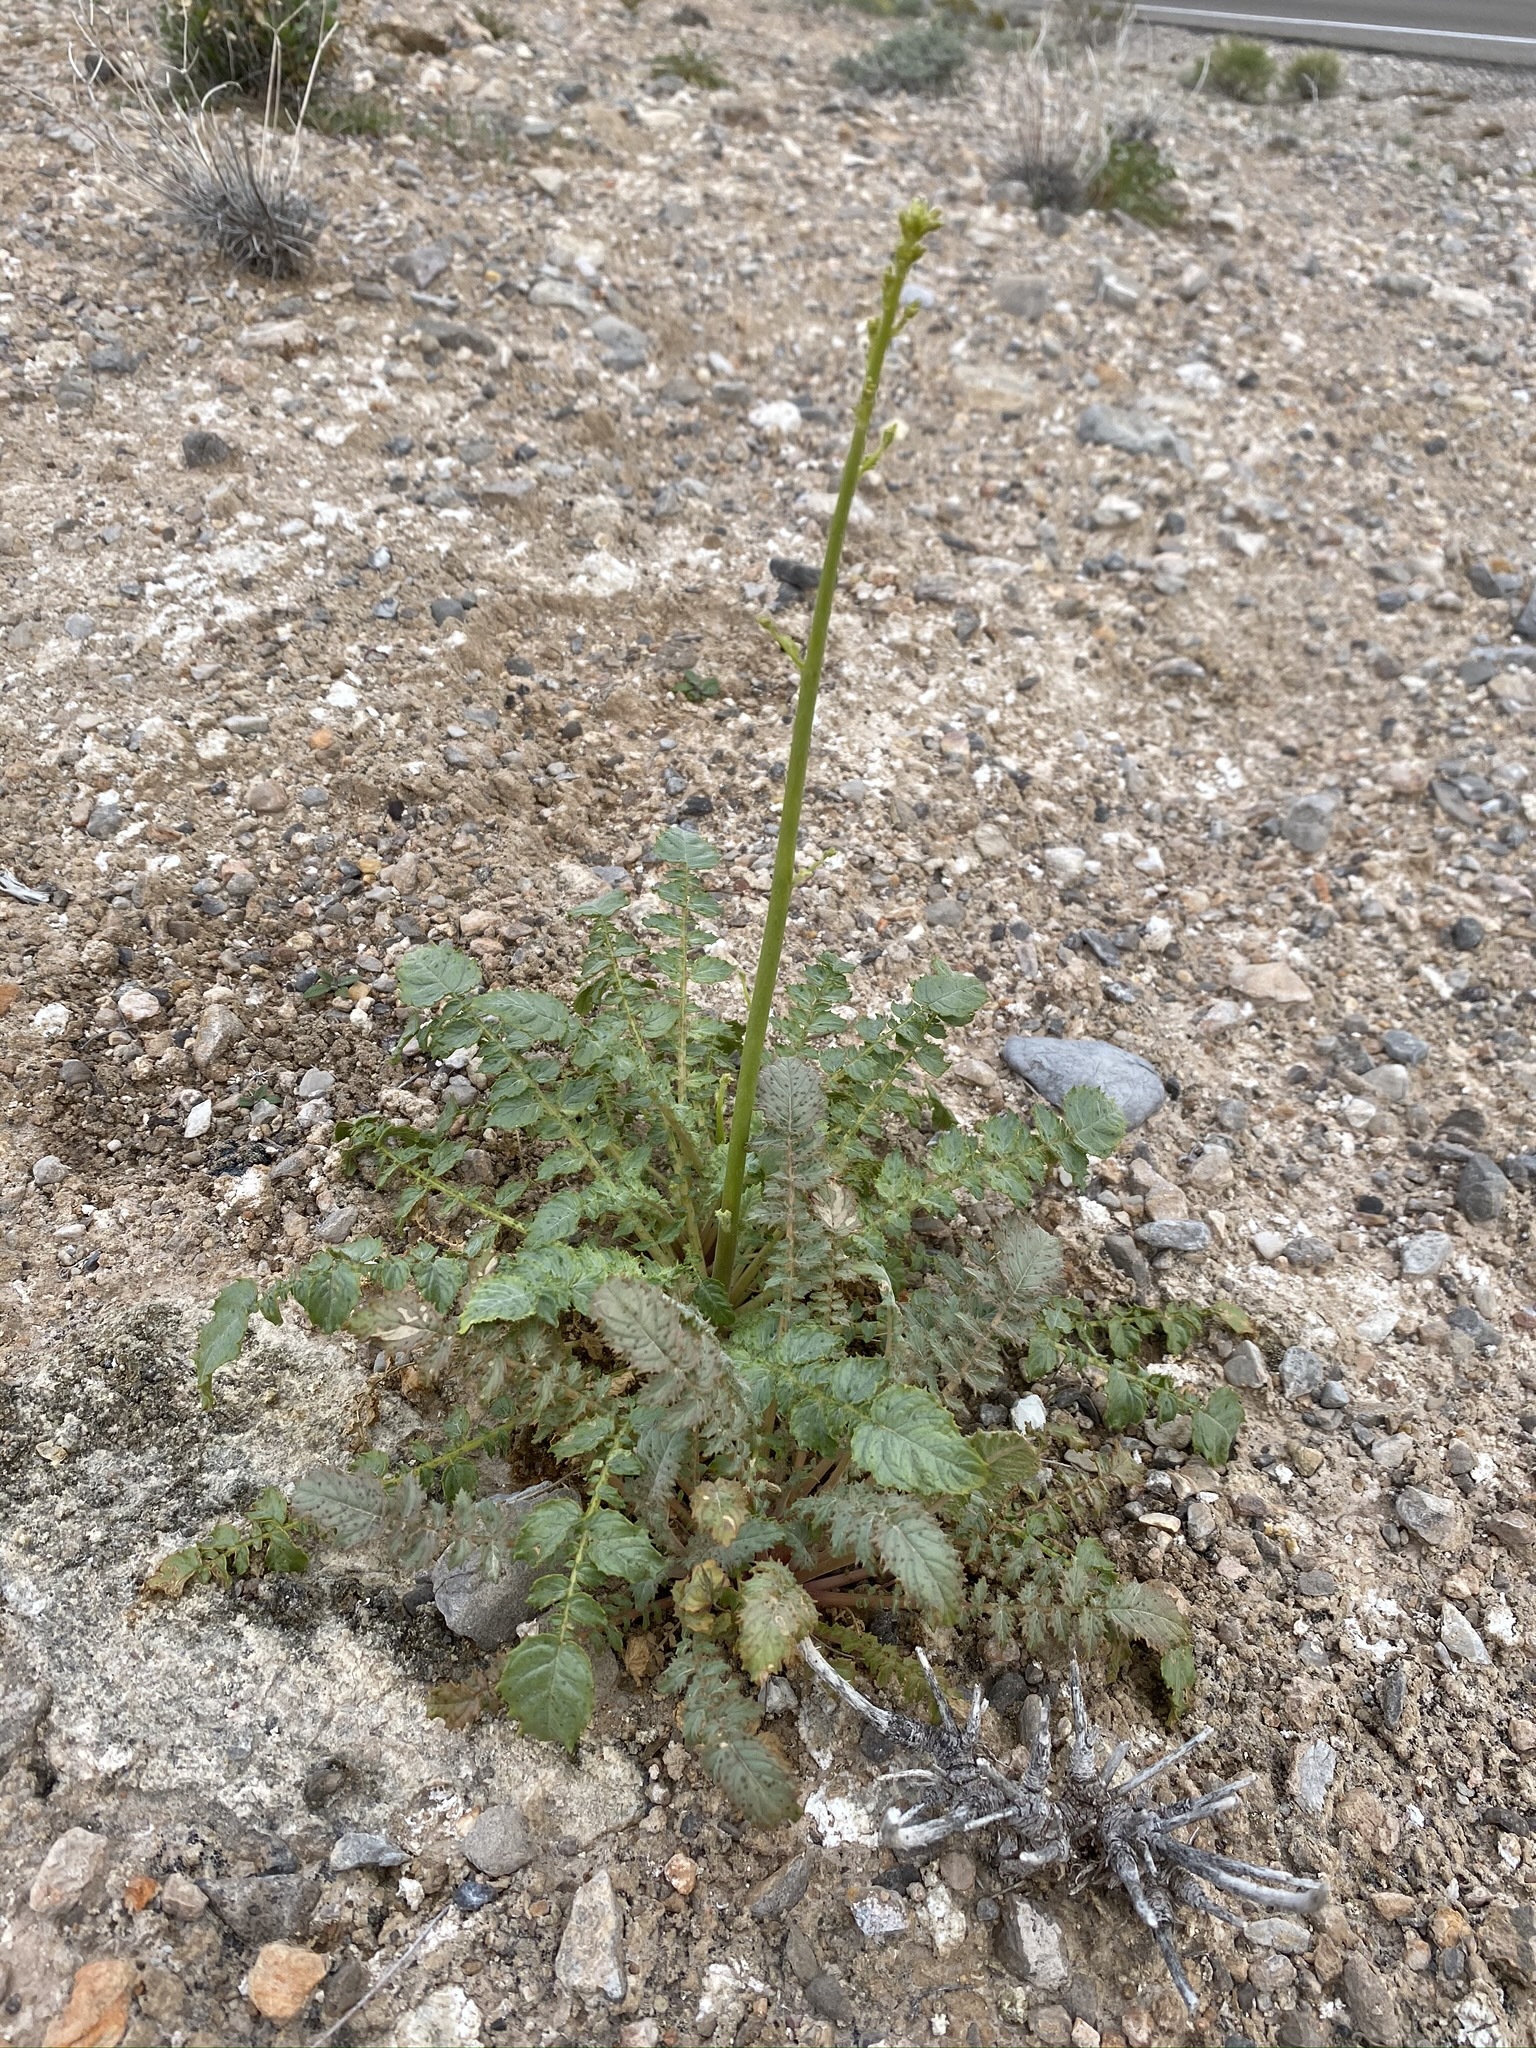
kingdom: Plantae
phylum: Tracheophyta
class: Magnoliopsida
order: Myrtales
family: Onagraceae
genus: Chylismia
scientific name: Chylismia walkeri
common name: Walker's suncup
